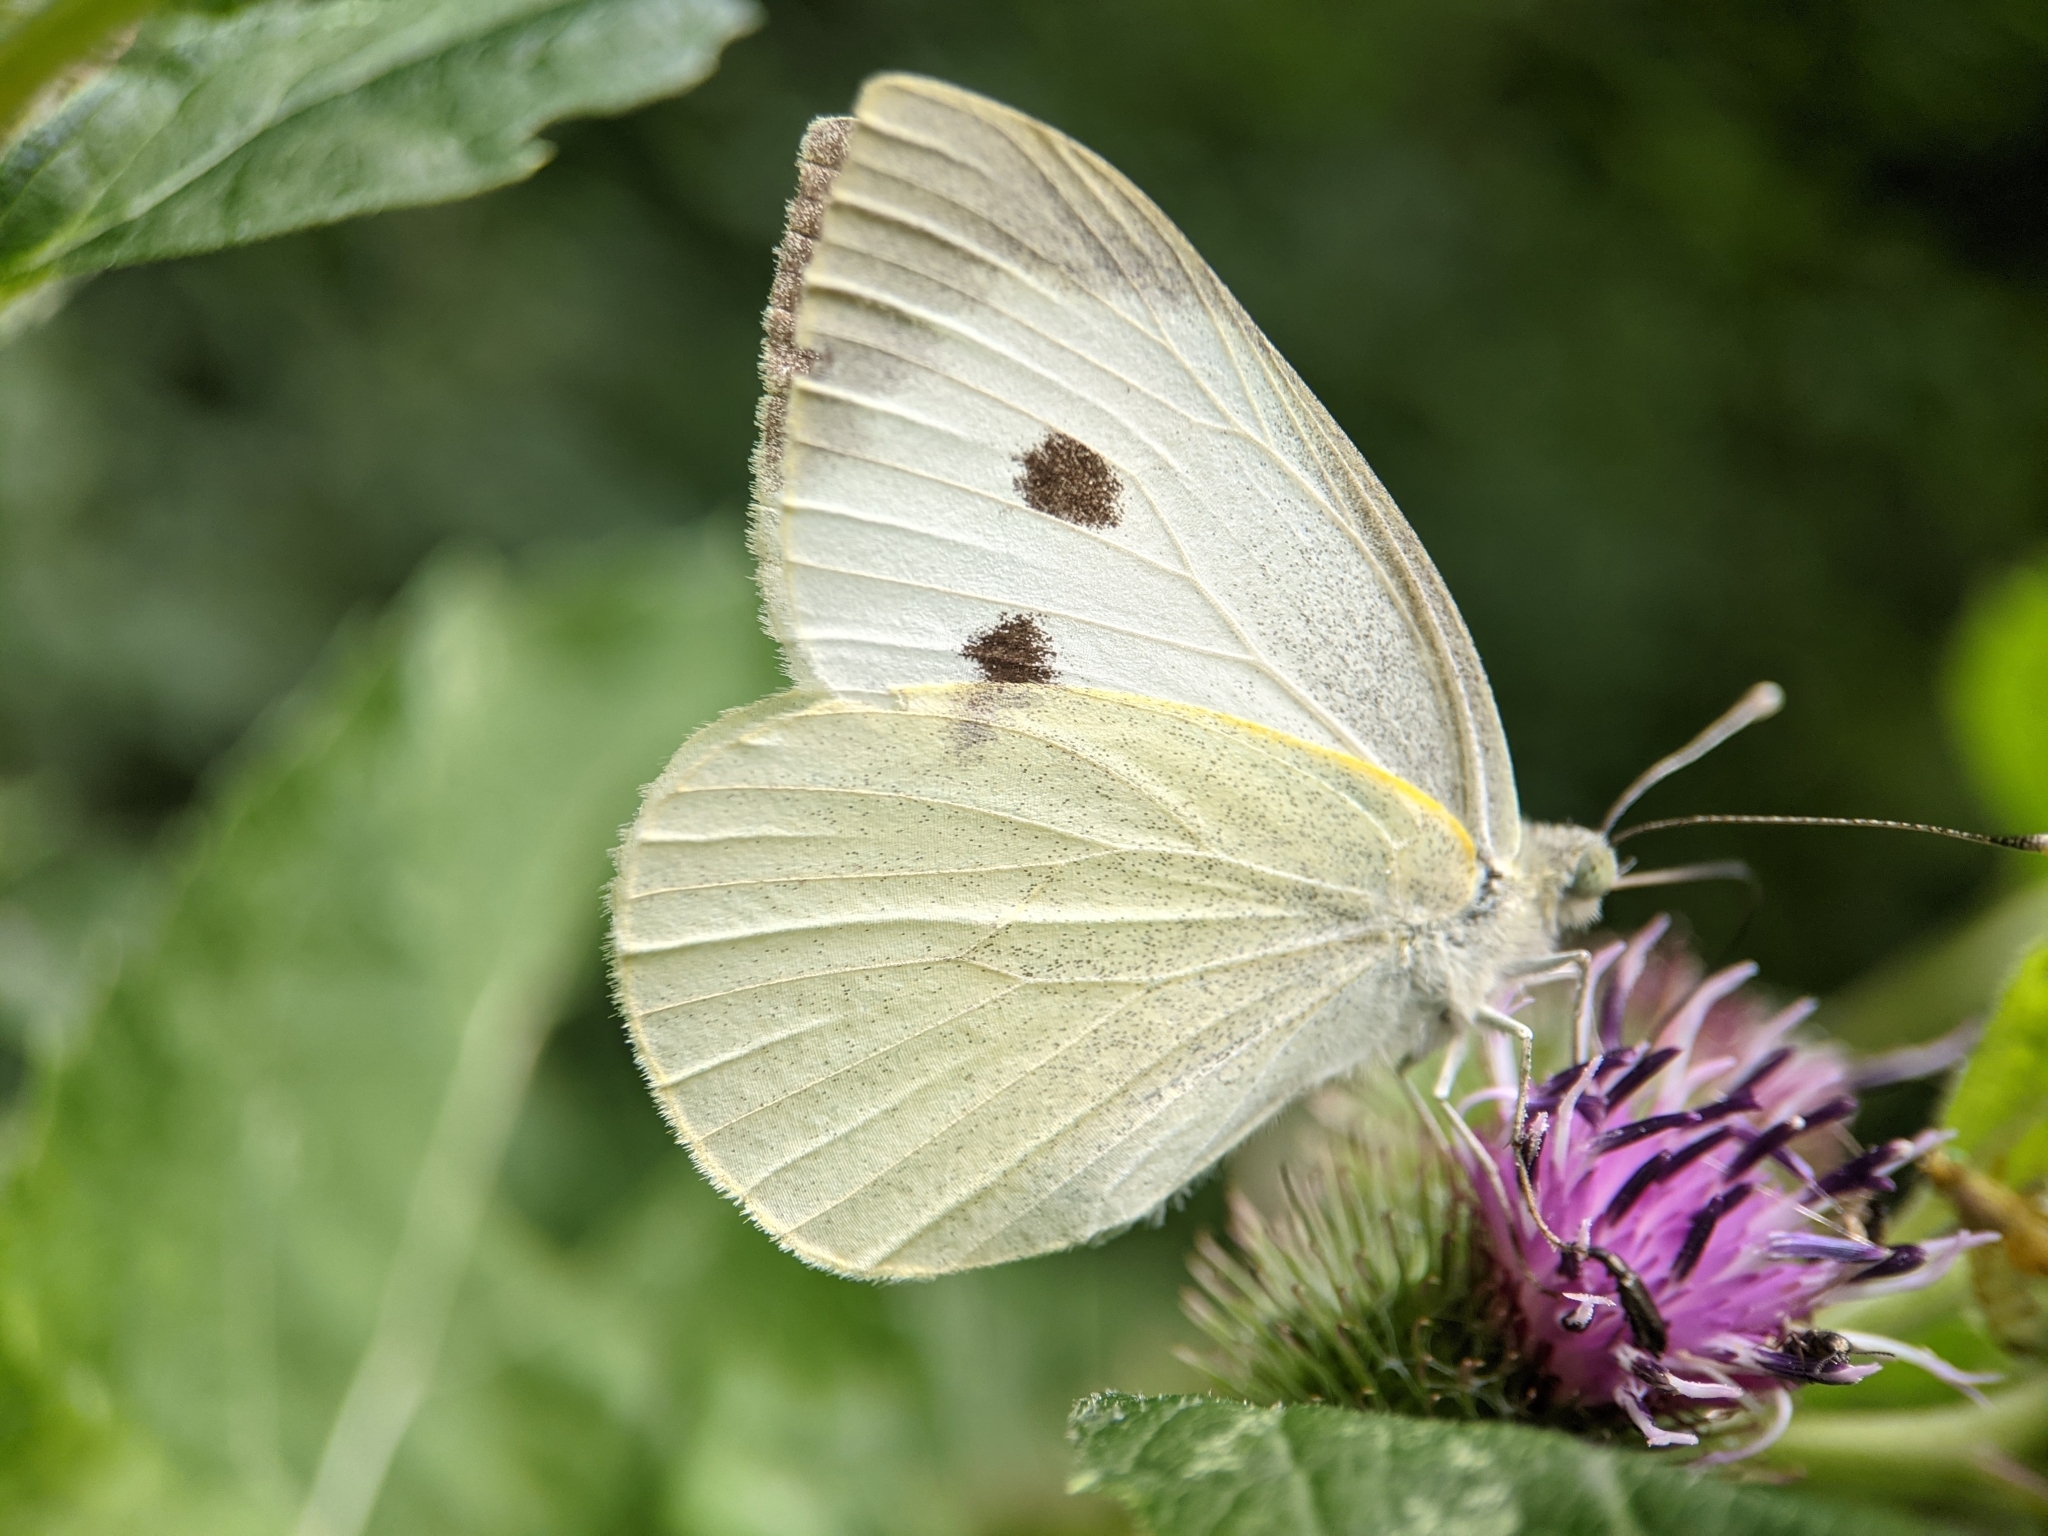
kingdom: Animalia
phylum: Arthropoda
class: Insecta
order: Lepidoptera
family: Pieridae
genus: Pieris
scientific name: Pieris brassicae
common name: Large white
